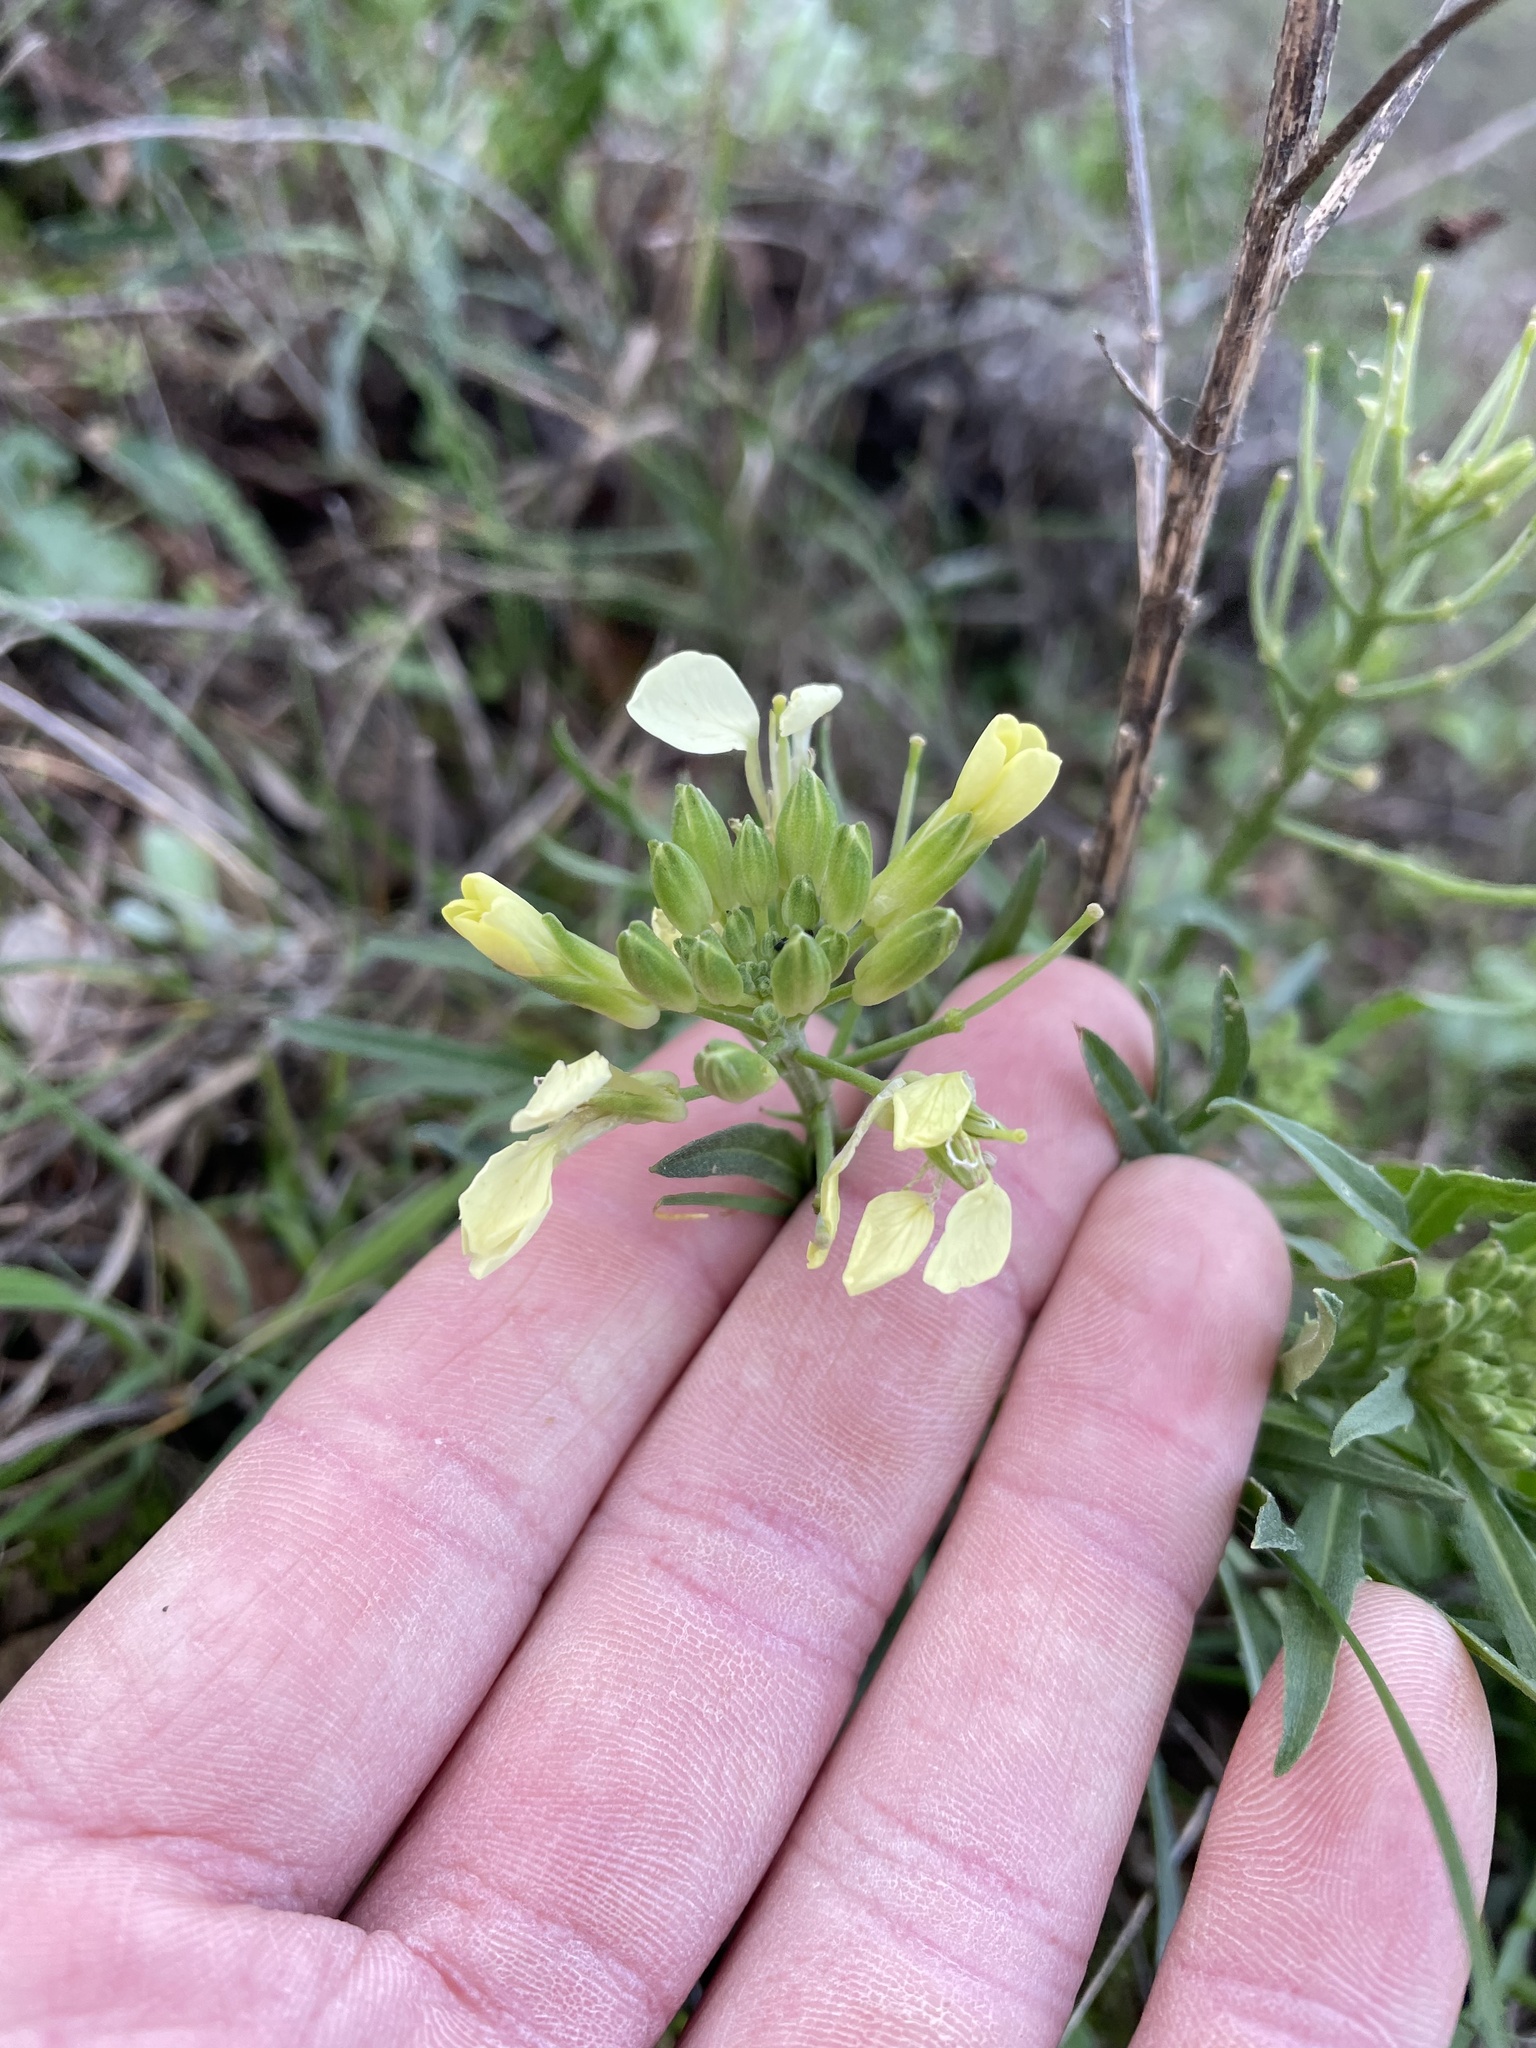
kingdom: Plantae
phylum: Tracheophyta
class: Magnoliopsida
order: Brassicales
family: Brassicaceae
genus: Erysimum
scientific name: Erysimum franciscanum
